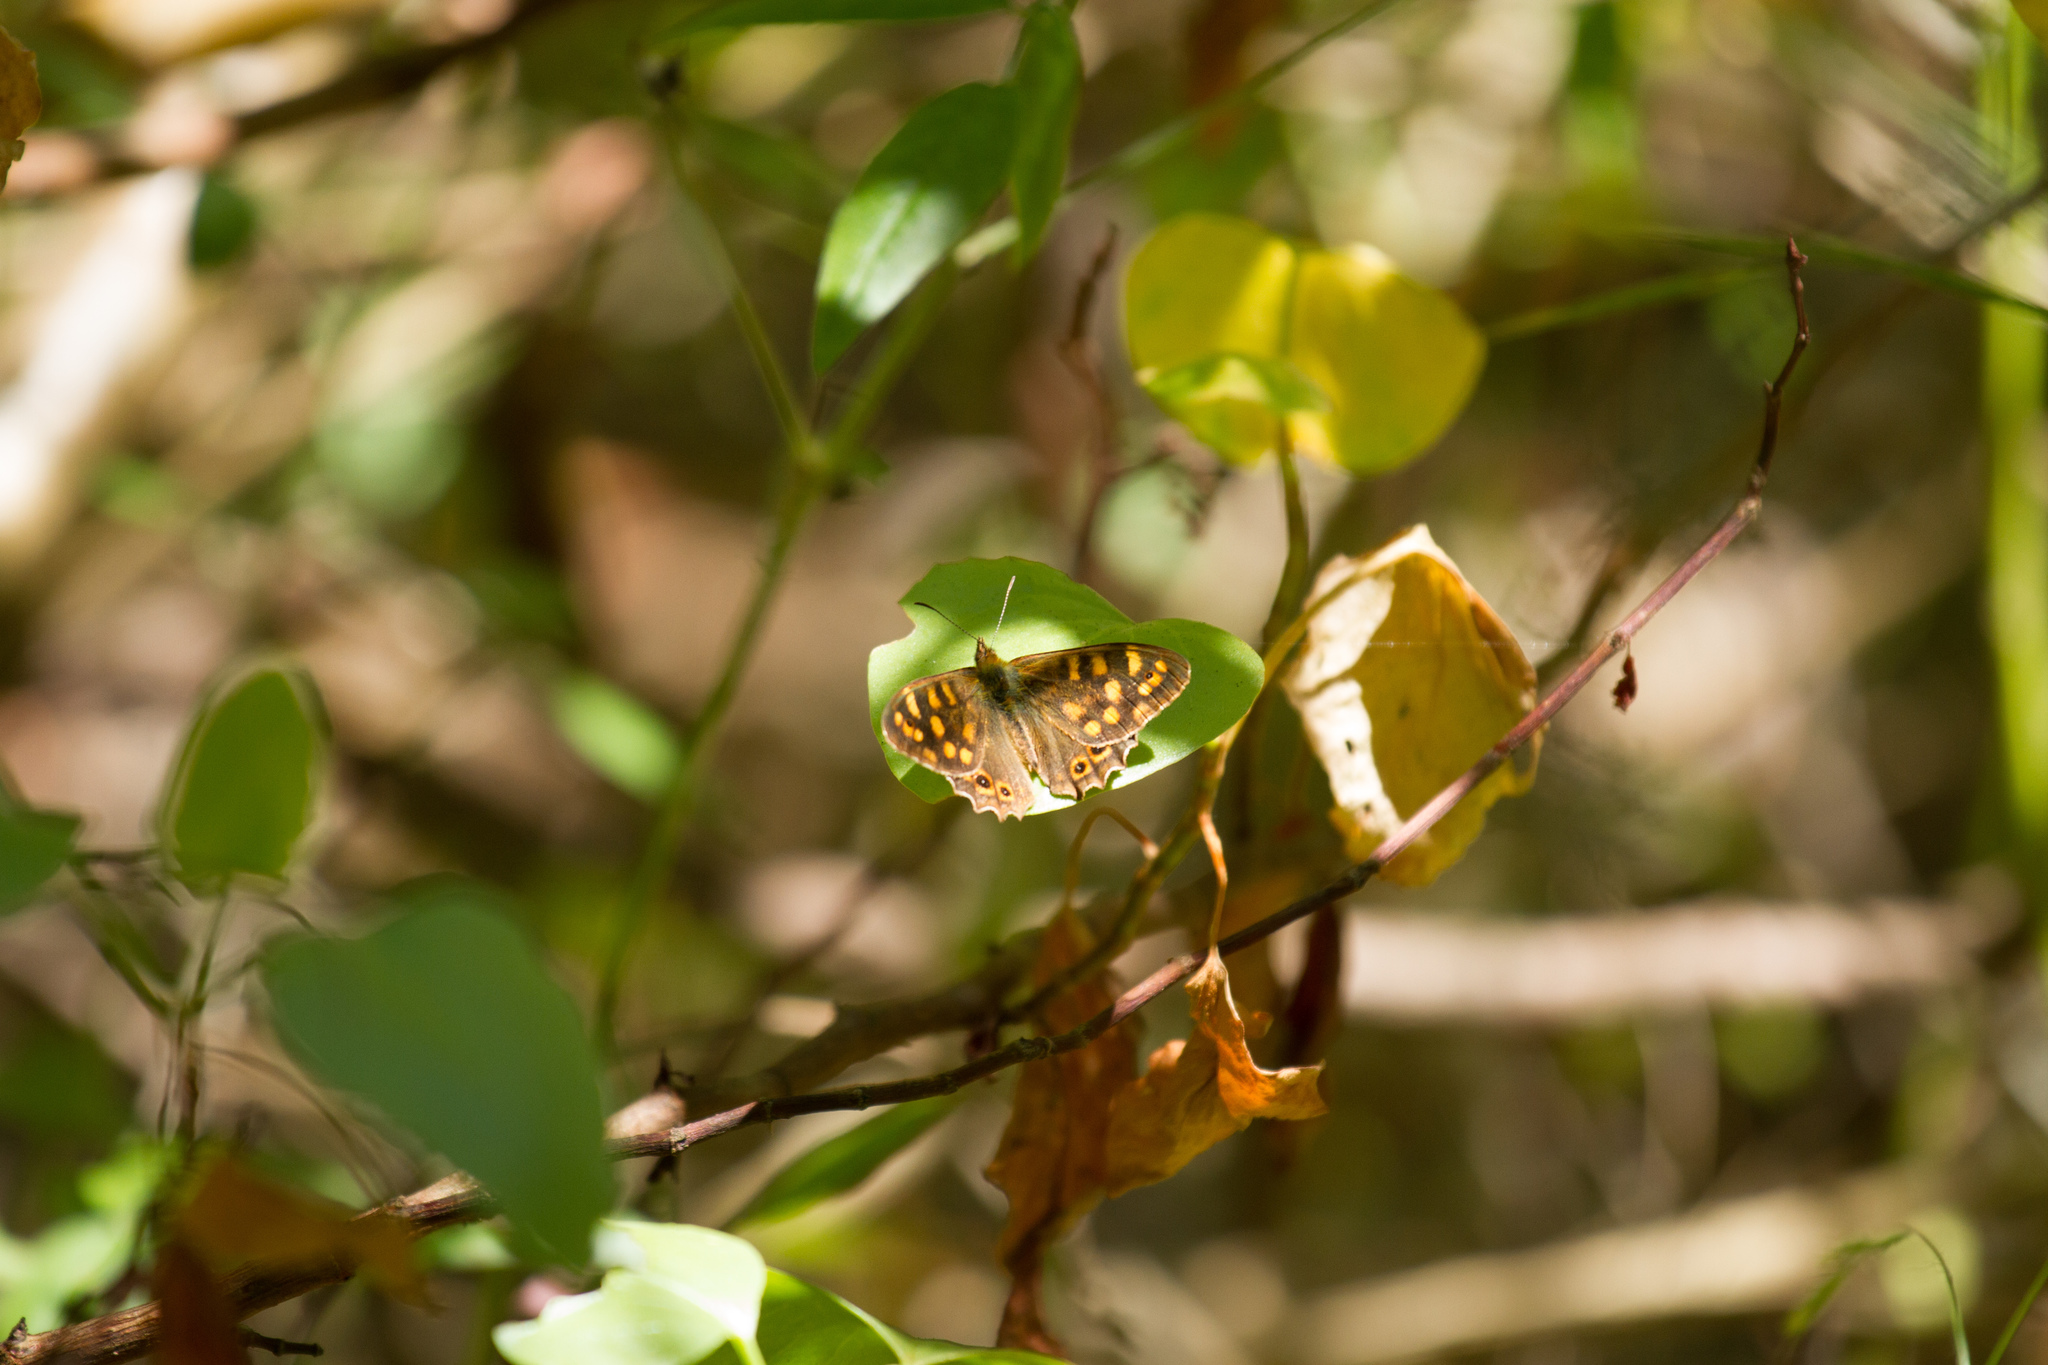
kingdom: Animalia
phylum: Arthropoda
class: Insecta
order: Lepidoptera
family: Nymphalidae
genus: Pararge
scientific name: Pararge aegeria
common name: Speckled wood
